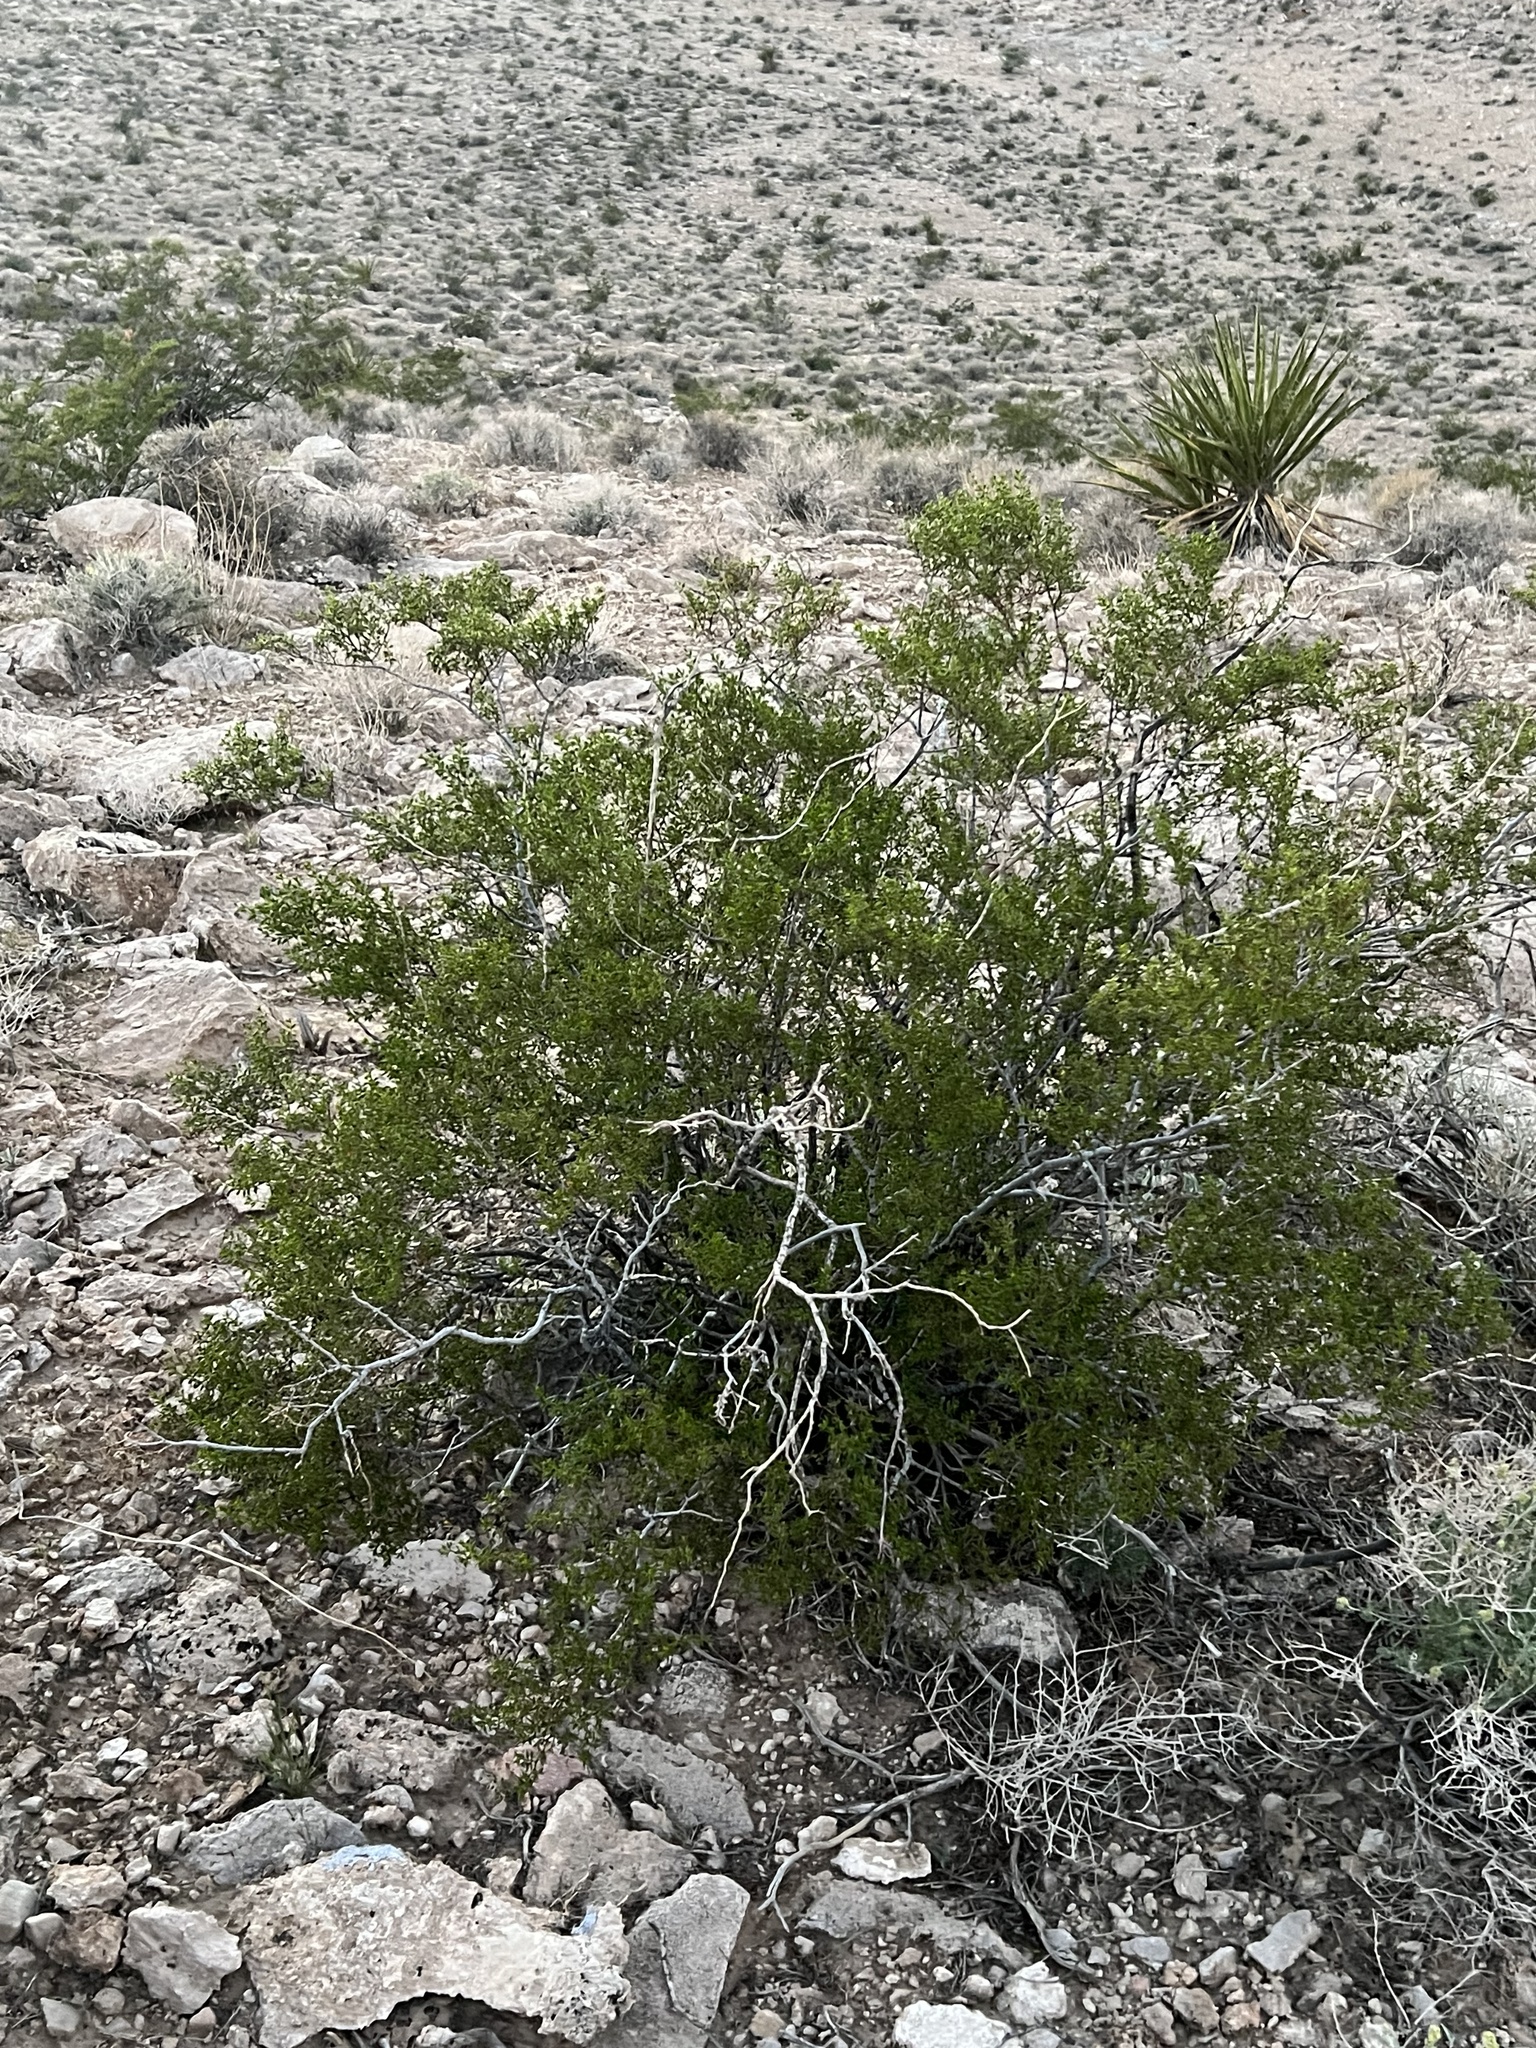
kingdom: Plantae
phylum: Tracheophyta
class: Magnoliopsida
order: Zygophyllales
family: Zygophyllaceae
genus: Larrea
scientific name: Larrea tridentata
